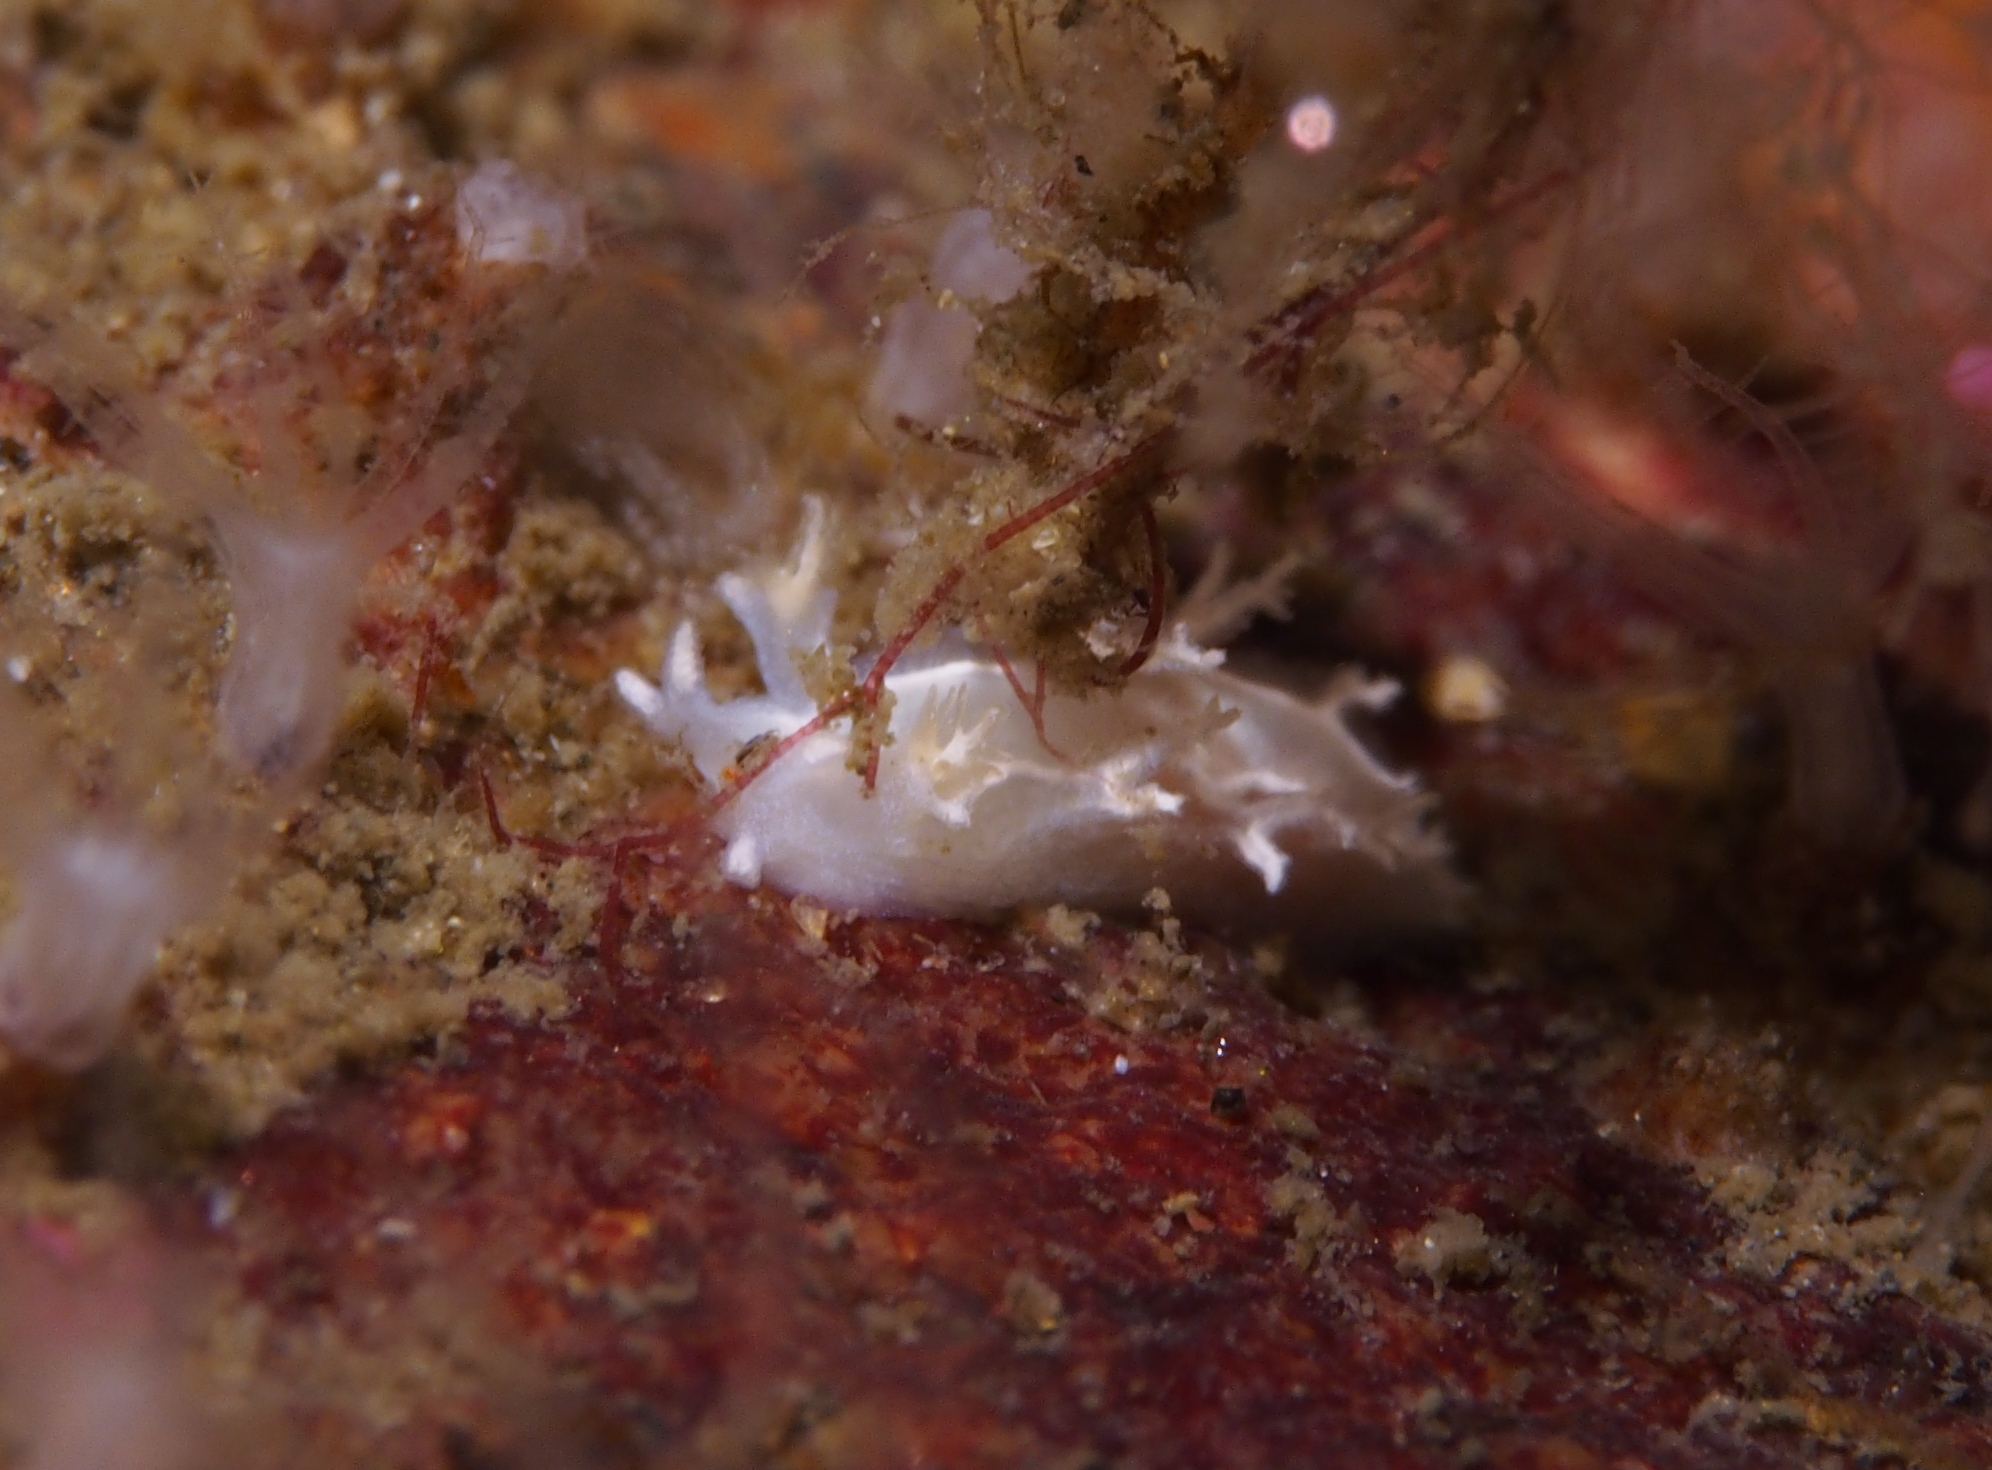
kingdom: Animalia
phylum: Mollusca
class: Gastropoda
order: Nudibranchia
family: Tritoniidae
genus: Duvaucelia
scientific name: Duvaucelia lineata
